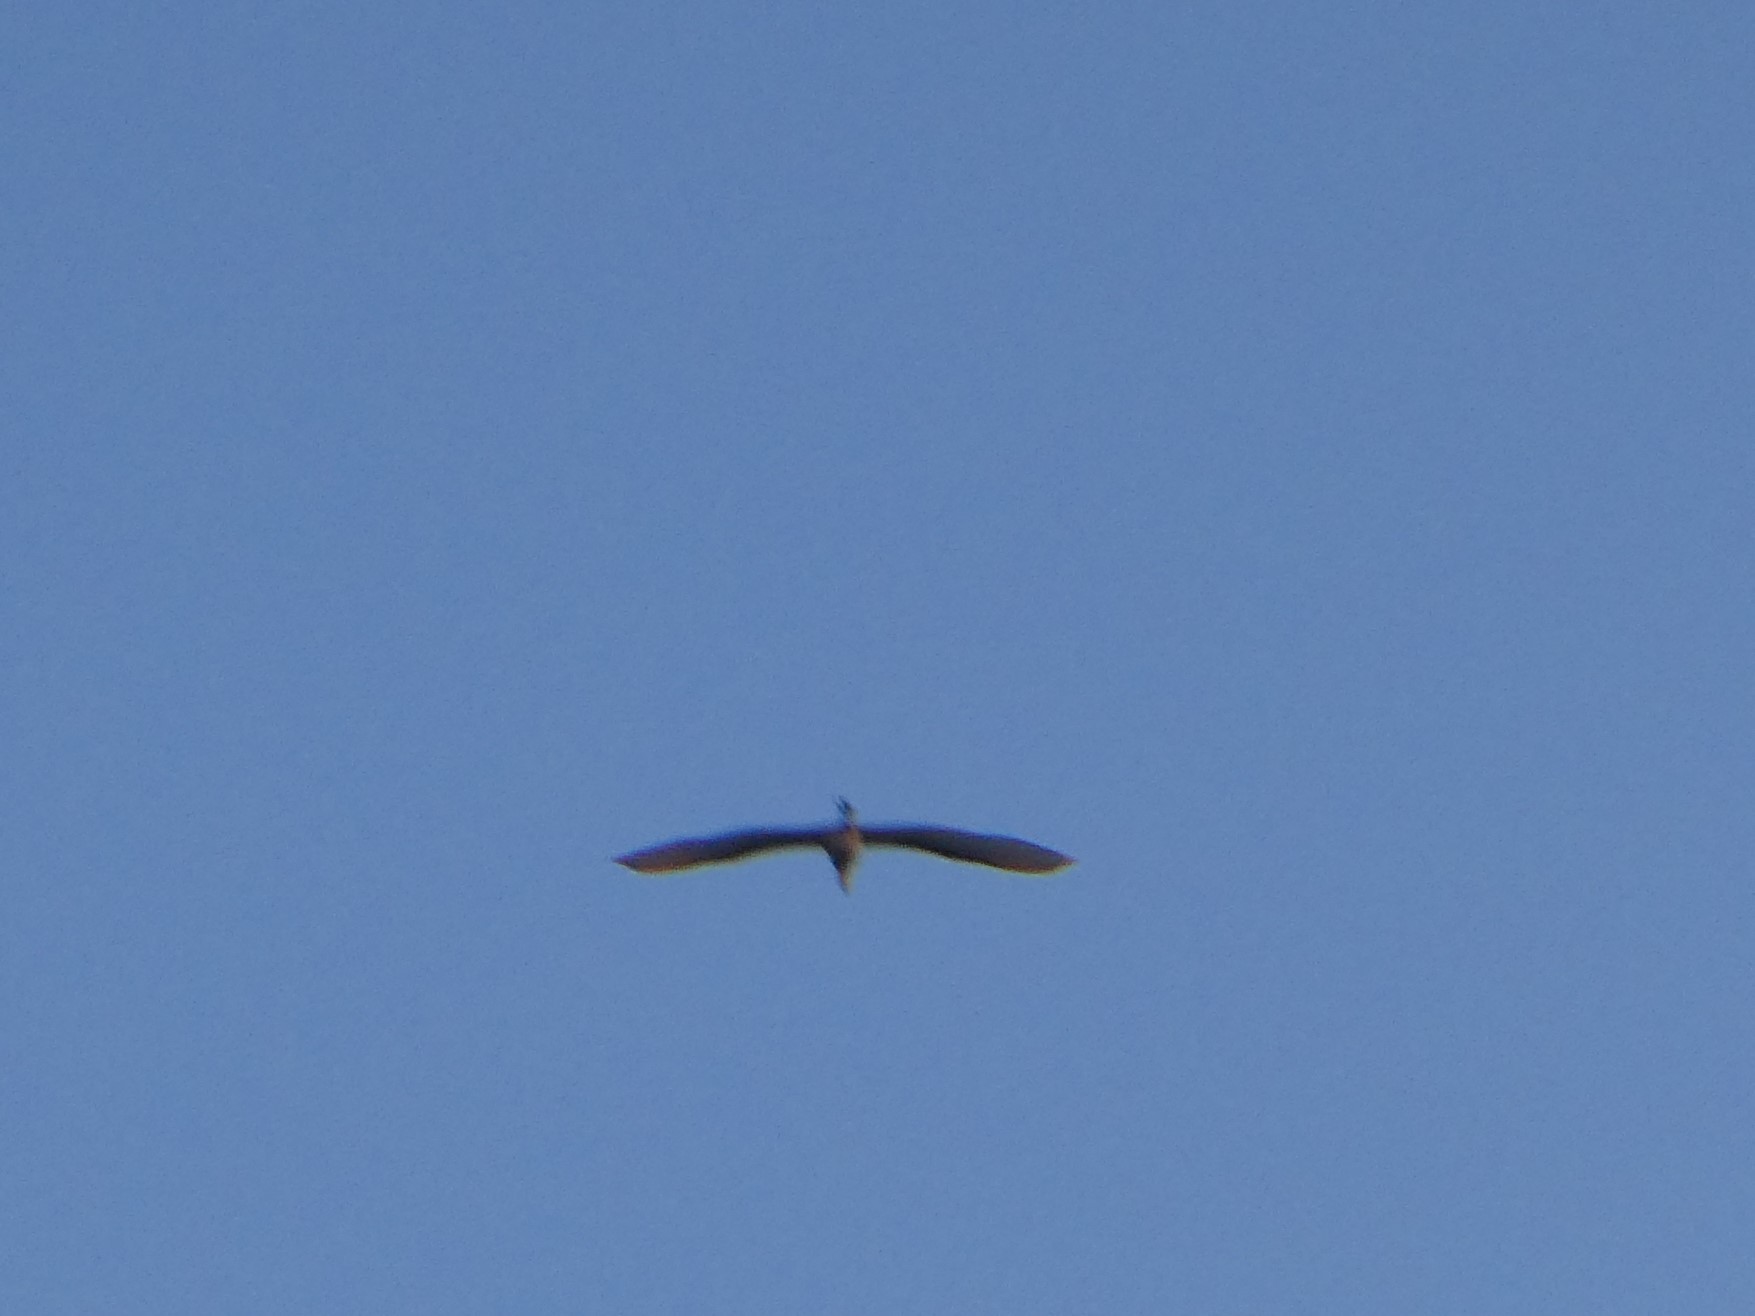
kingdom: Animalia
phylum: Chordata
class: Aves
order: Gruiformes
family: Gruidae
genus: Grus
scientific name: Grus canadensis
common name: Sandhill crane
